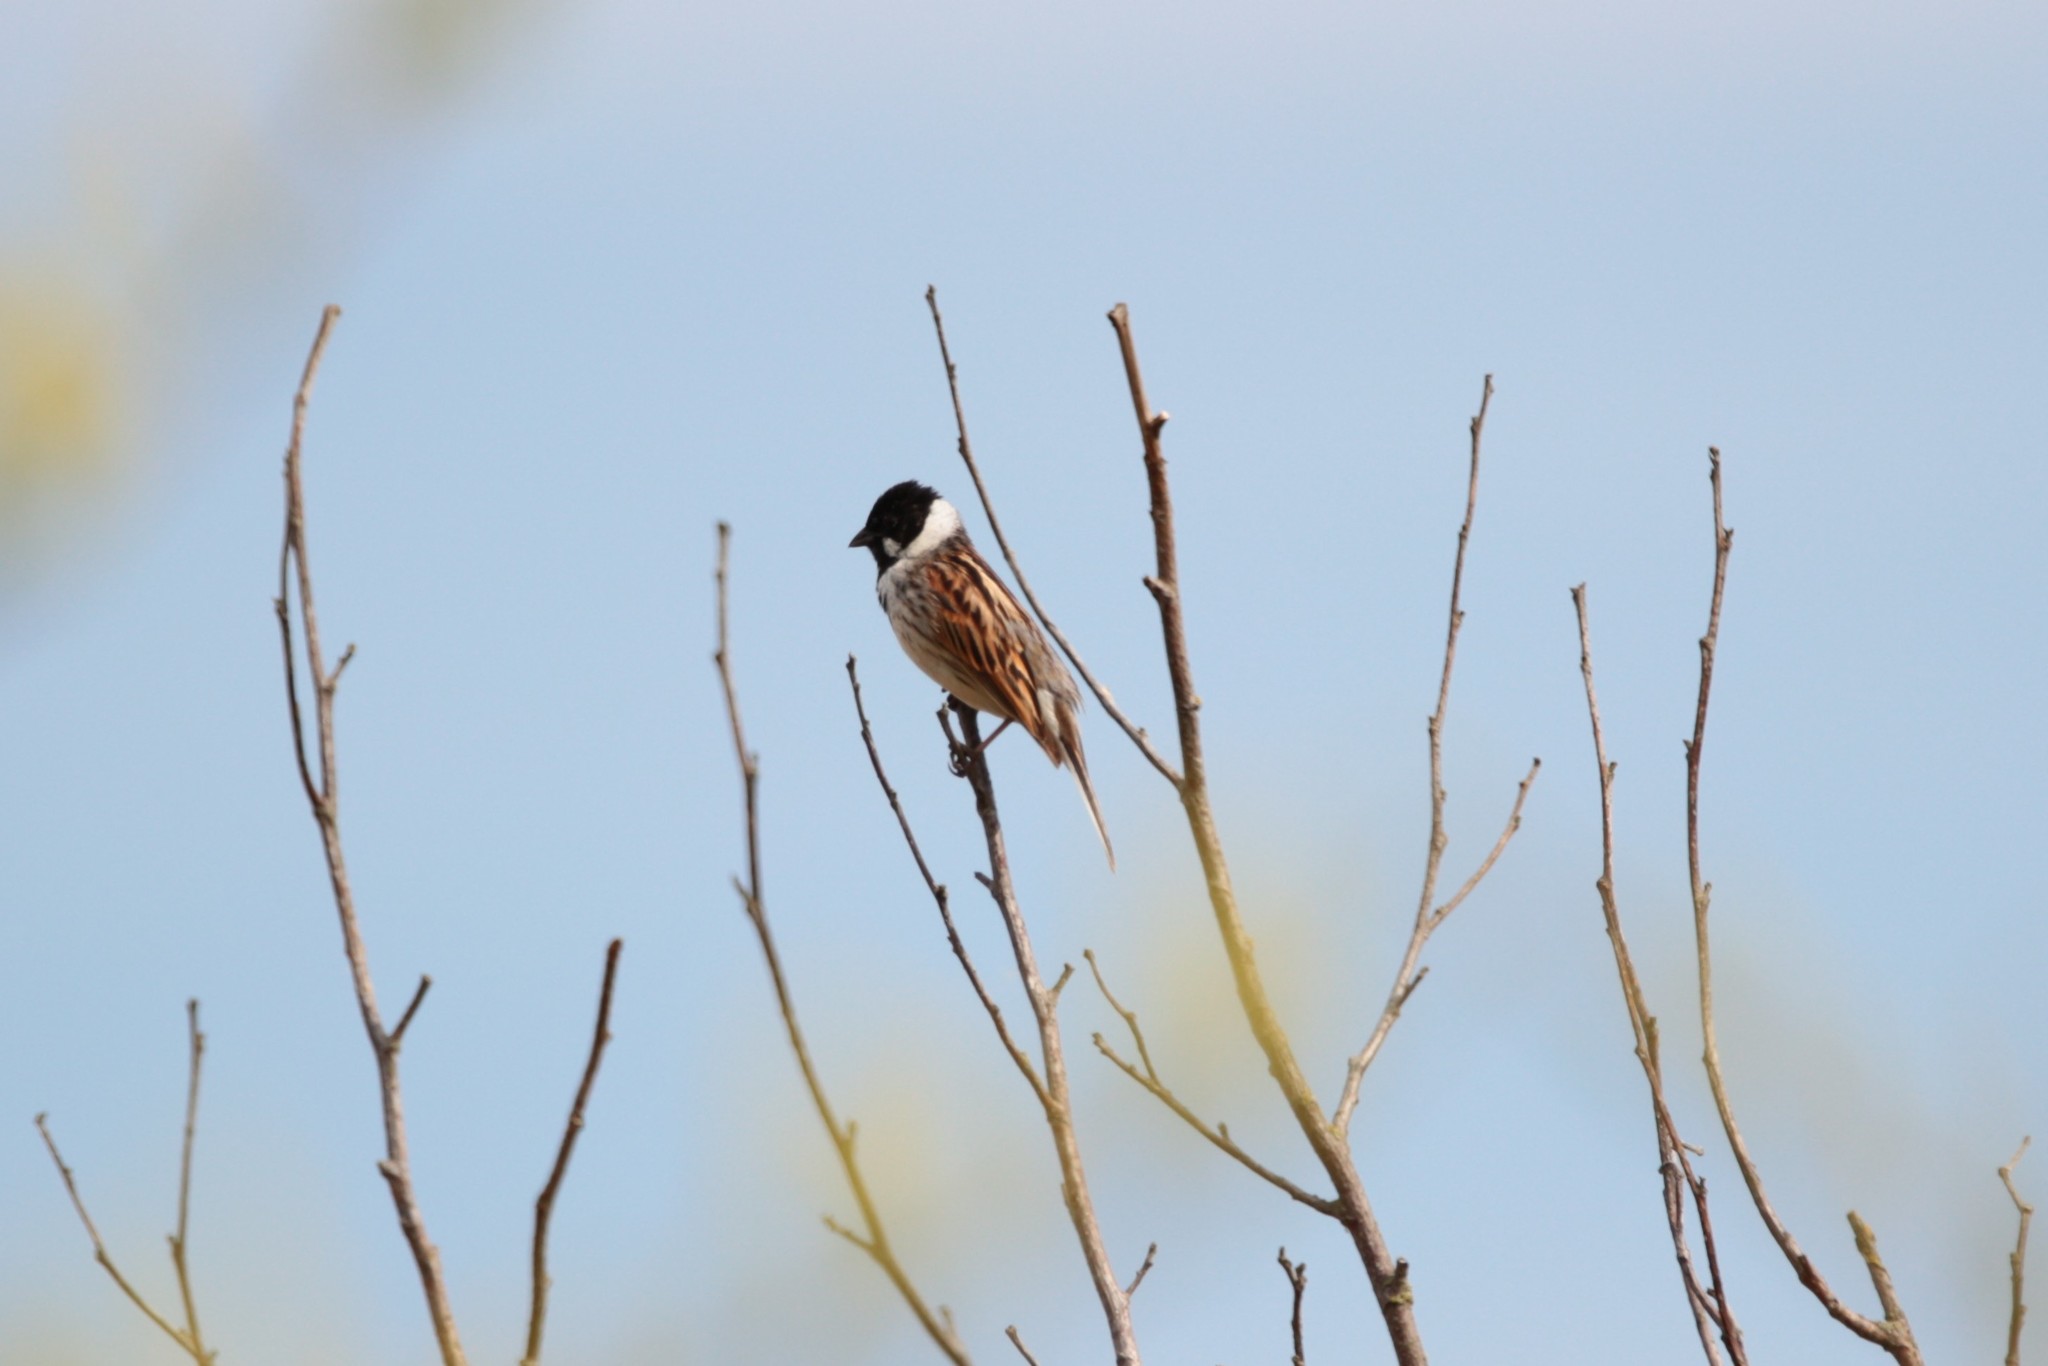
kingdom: Animalia
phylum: Chordata
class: Aves
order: Passeriformes
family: Emberizidae
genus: Emberiza
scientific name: Emberiza schoeniclus
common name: Reed bunting
